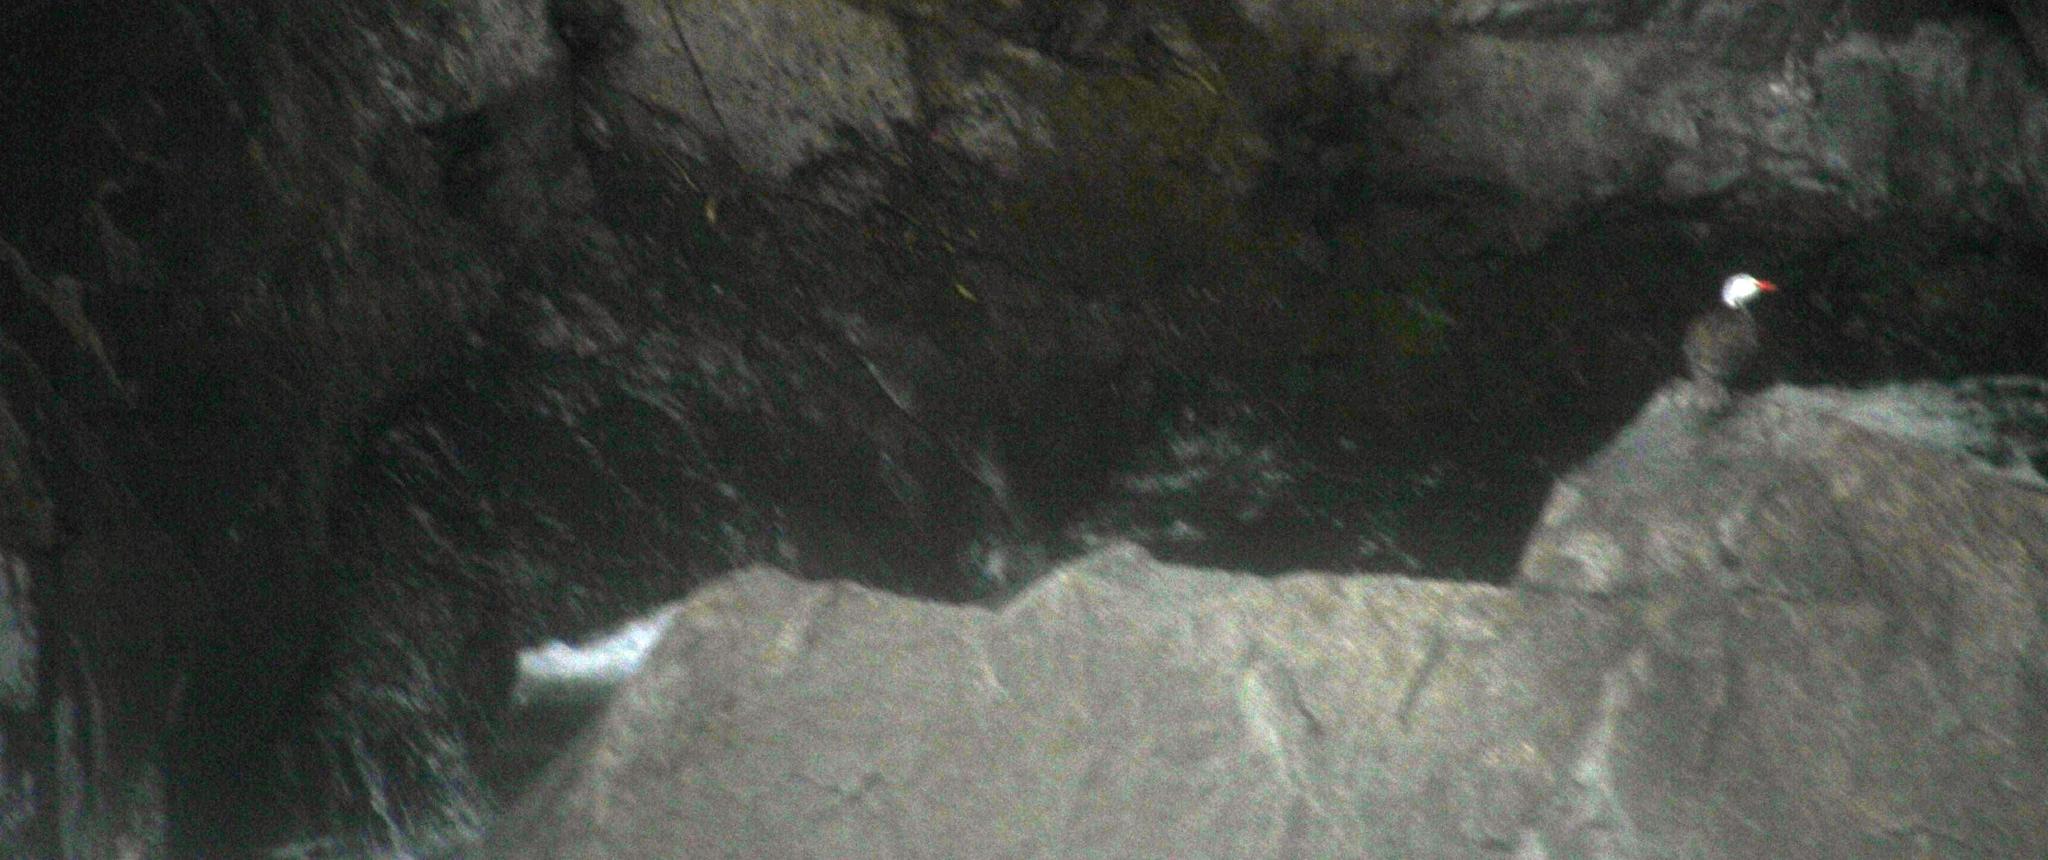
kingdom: Animalia
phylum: Chordata
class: Aves
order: Anseriformes
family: Anatidae
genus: Merganetta
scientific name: Merganetta armata
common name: Torrent duck
